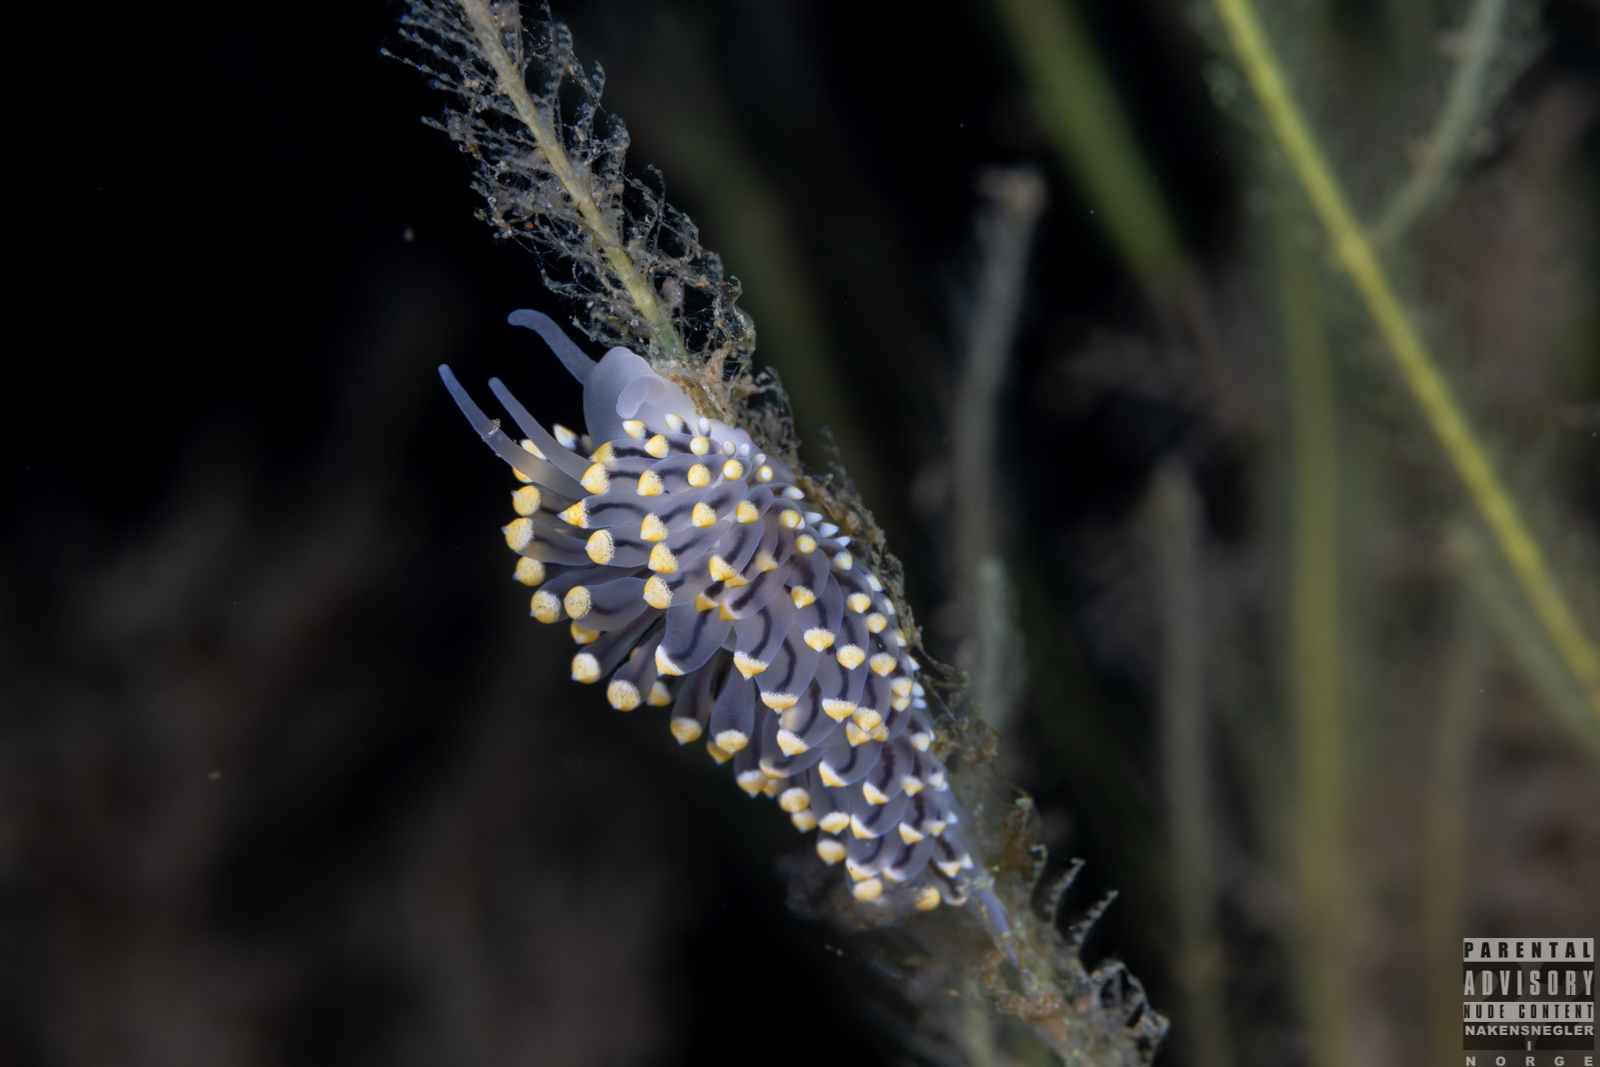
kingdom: Animalia
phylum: Mollusca
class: Gastropoda
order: Nudibranchia
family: Eubranchidae
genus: Eubranchus
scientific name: Eubranchus tricolor
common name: Painted balloon aeolis
